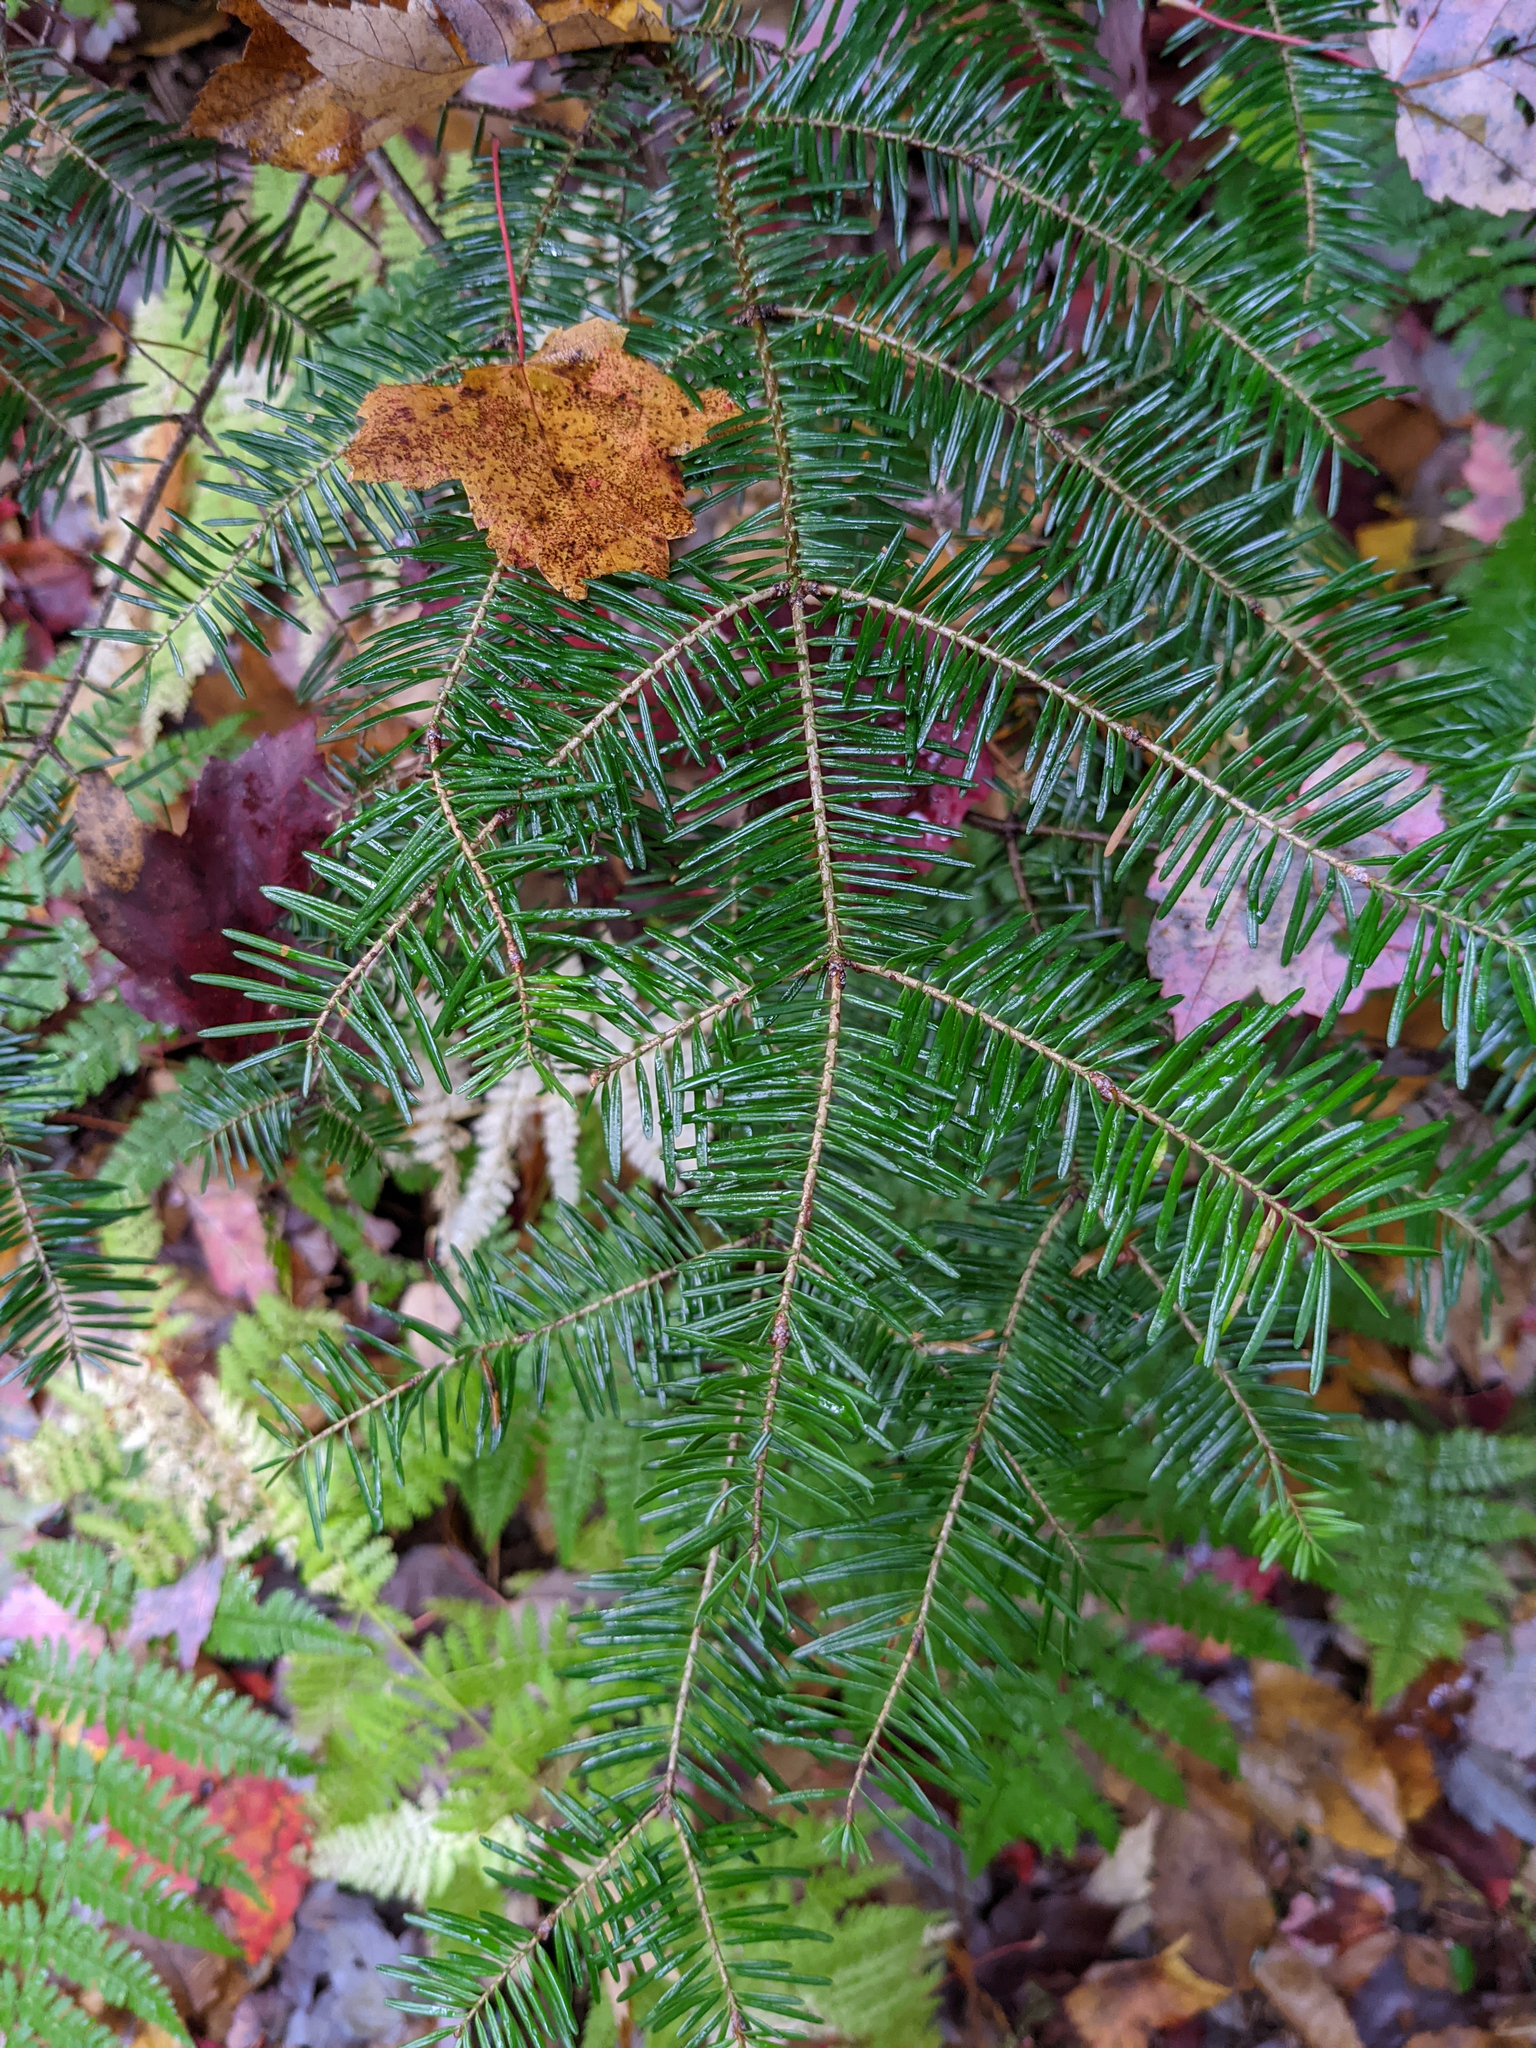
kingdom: Plantae
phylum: Tracheophyta
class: Pinopsida
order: Pinales
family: Pinaceae
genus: Abies
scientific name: Abies balsamea
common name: Balsam fir
